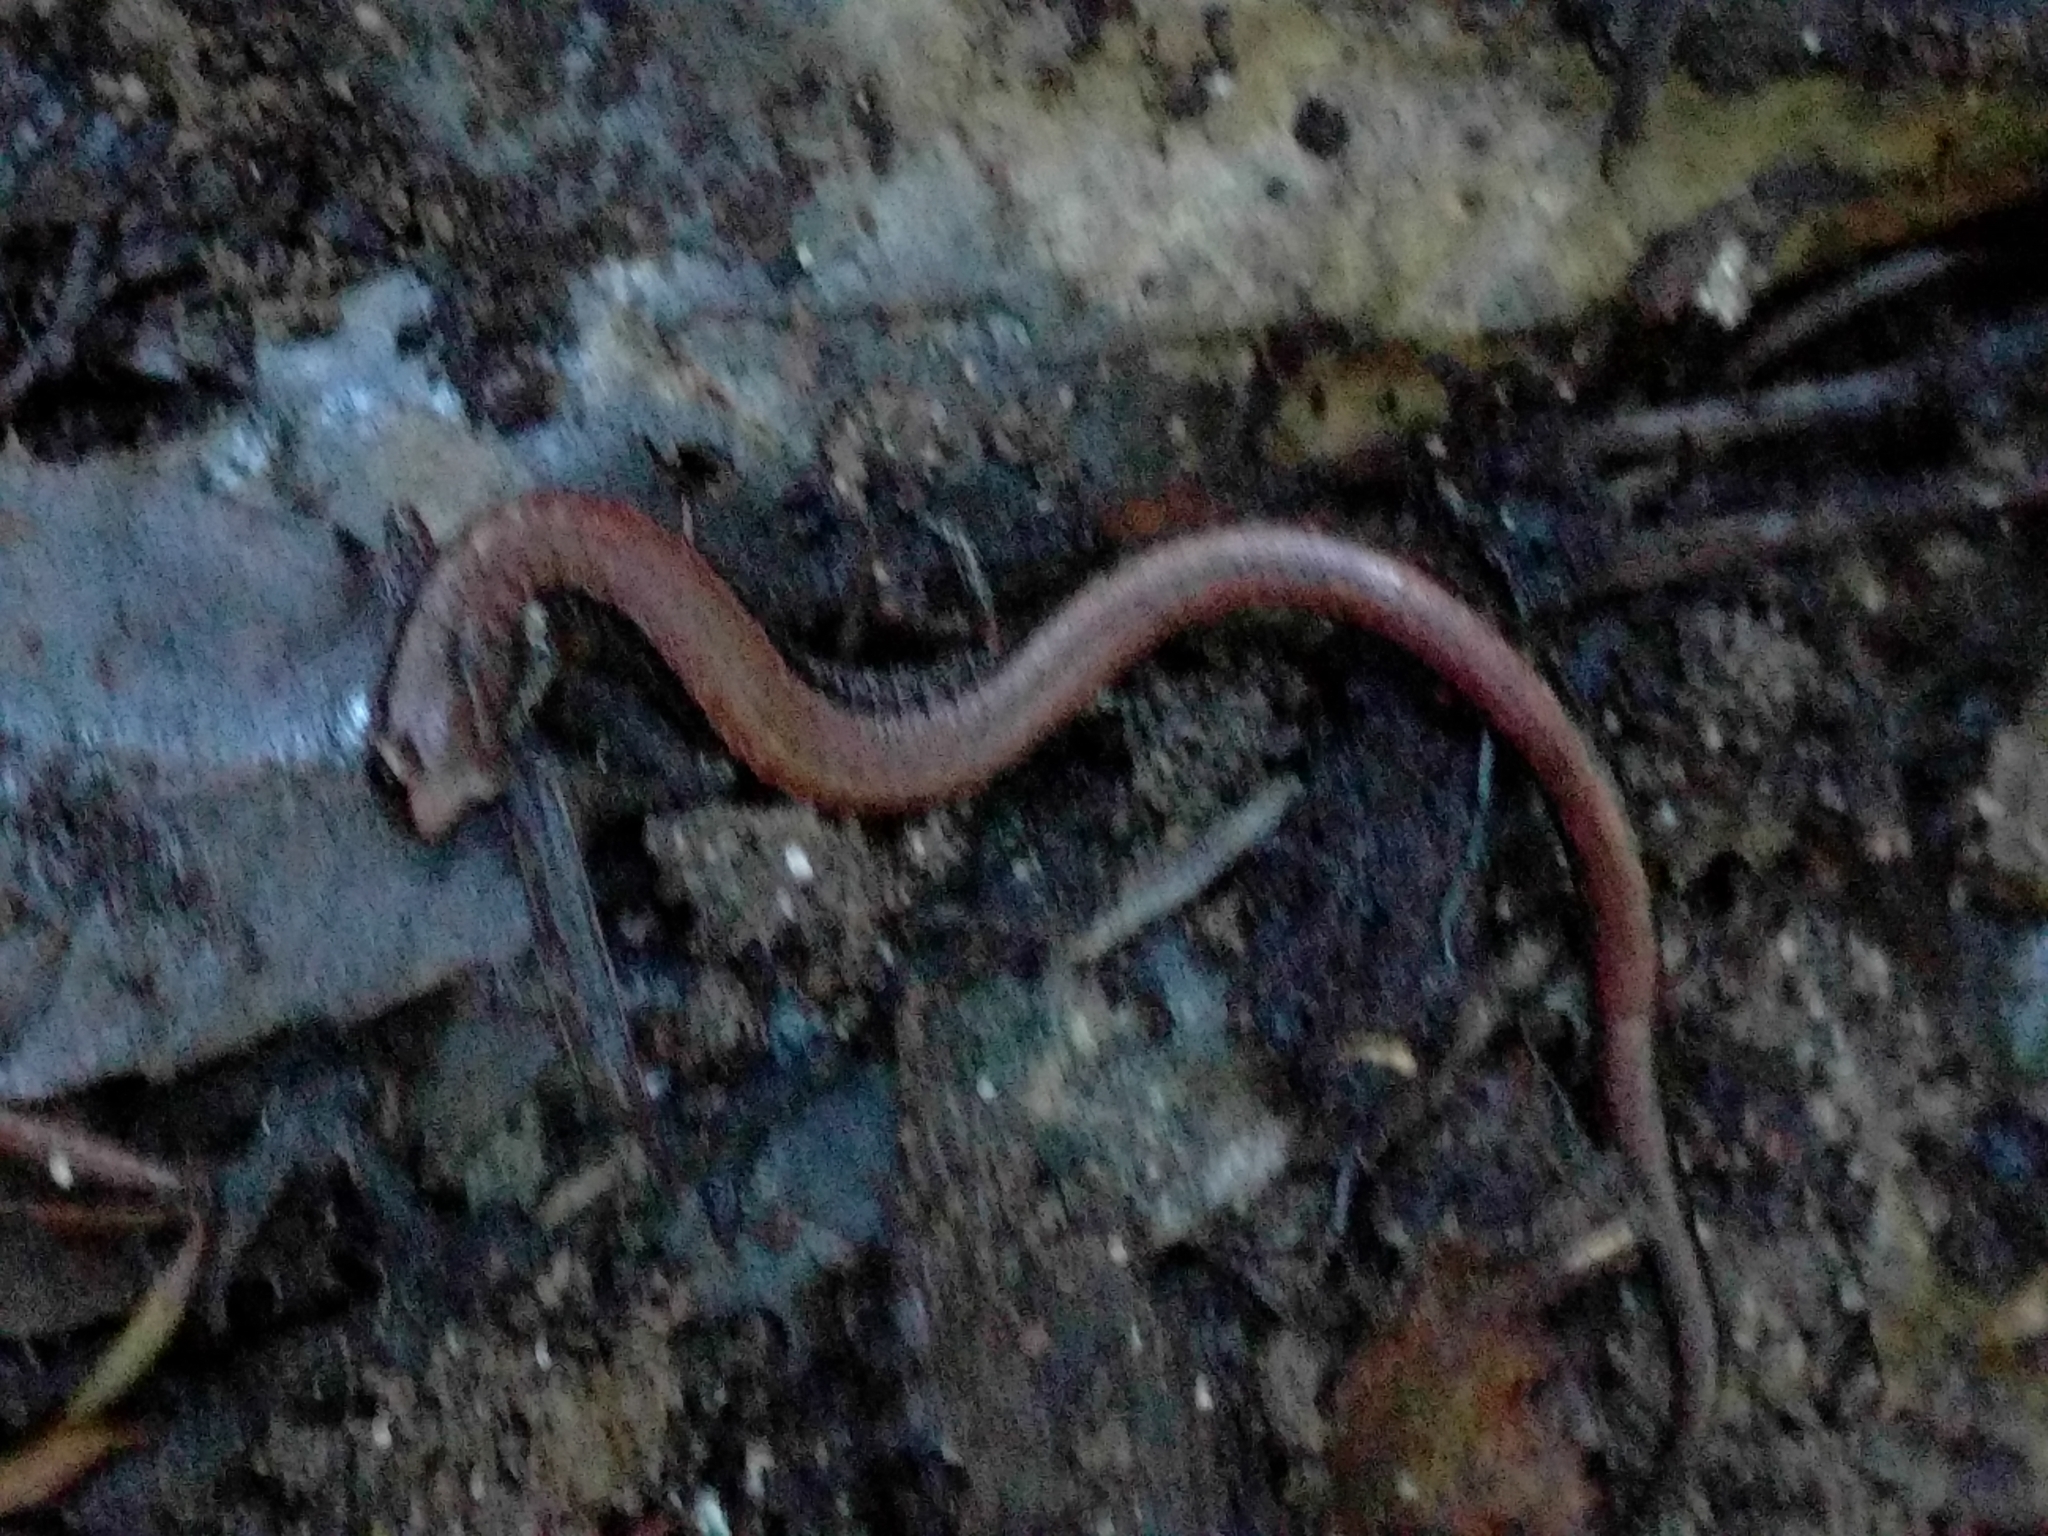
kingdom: Animalia
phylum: Chordata
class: Amphibia
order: Caudata
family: Plethodontidae
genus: Batrachoseps
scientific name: Batrachoseps attenuatus
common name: California slender salamander
